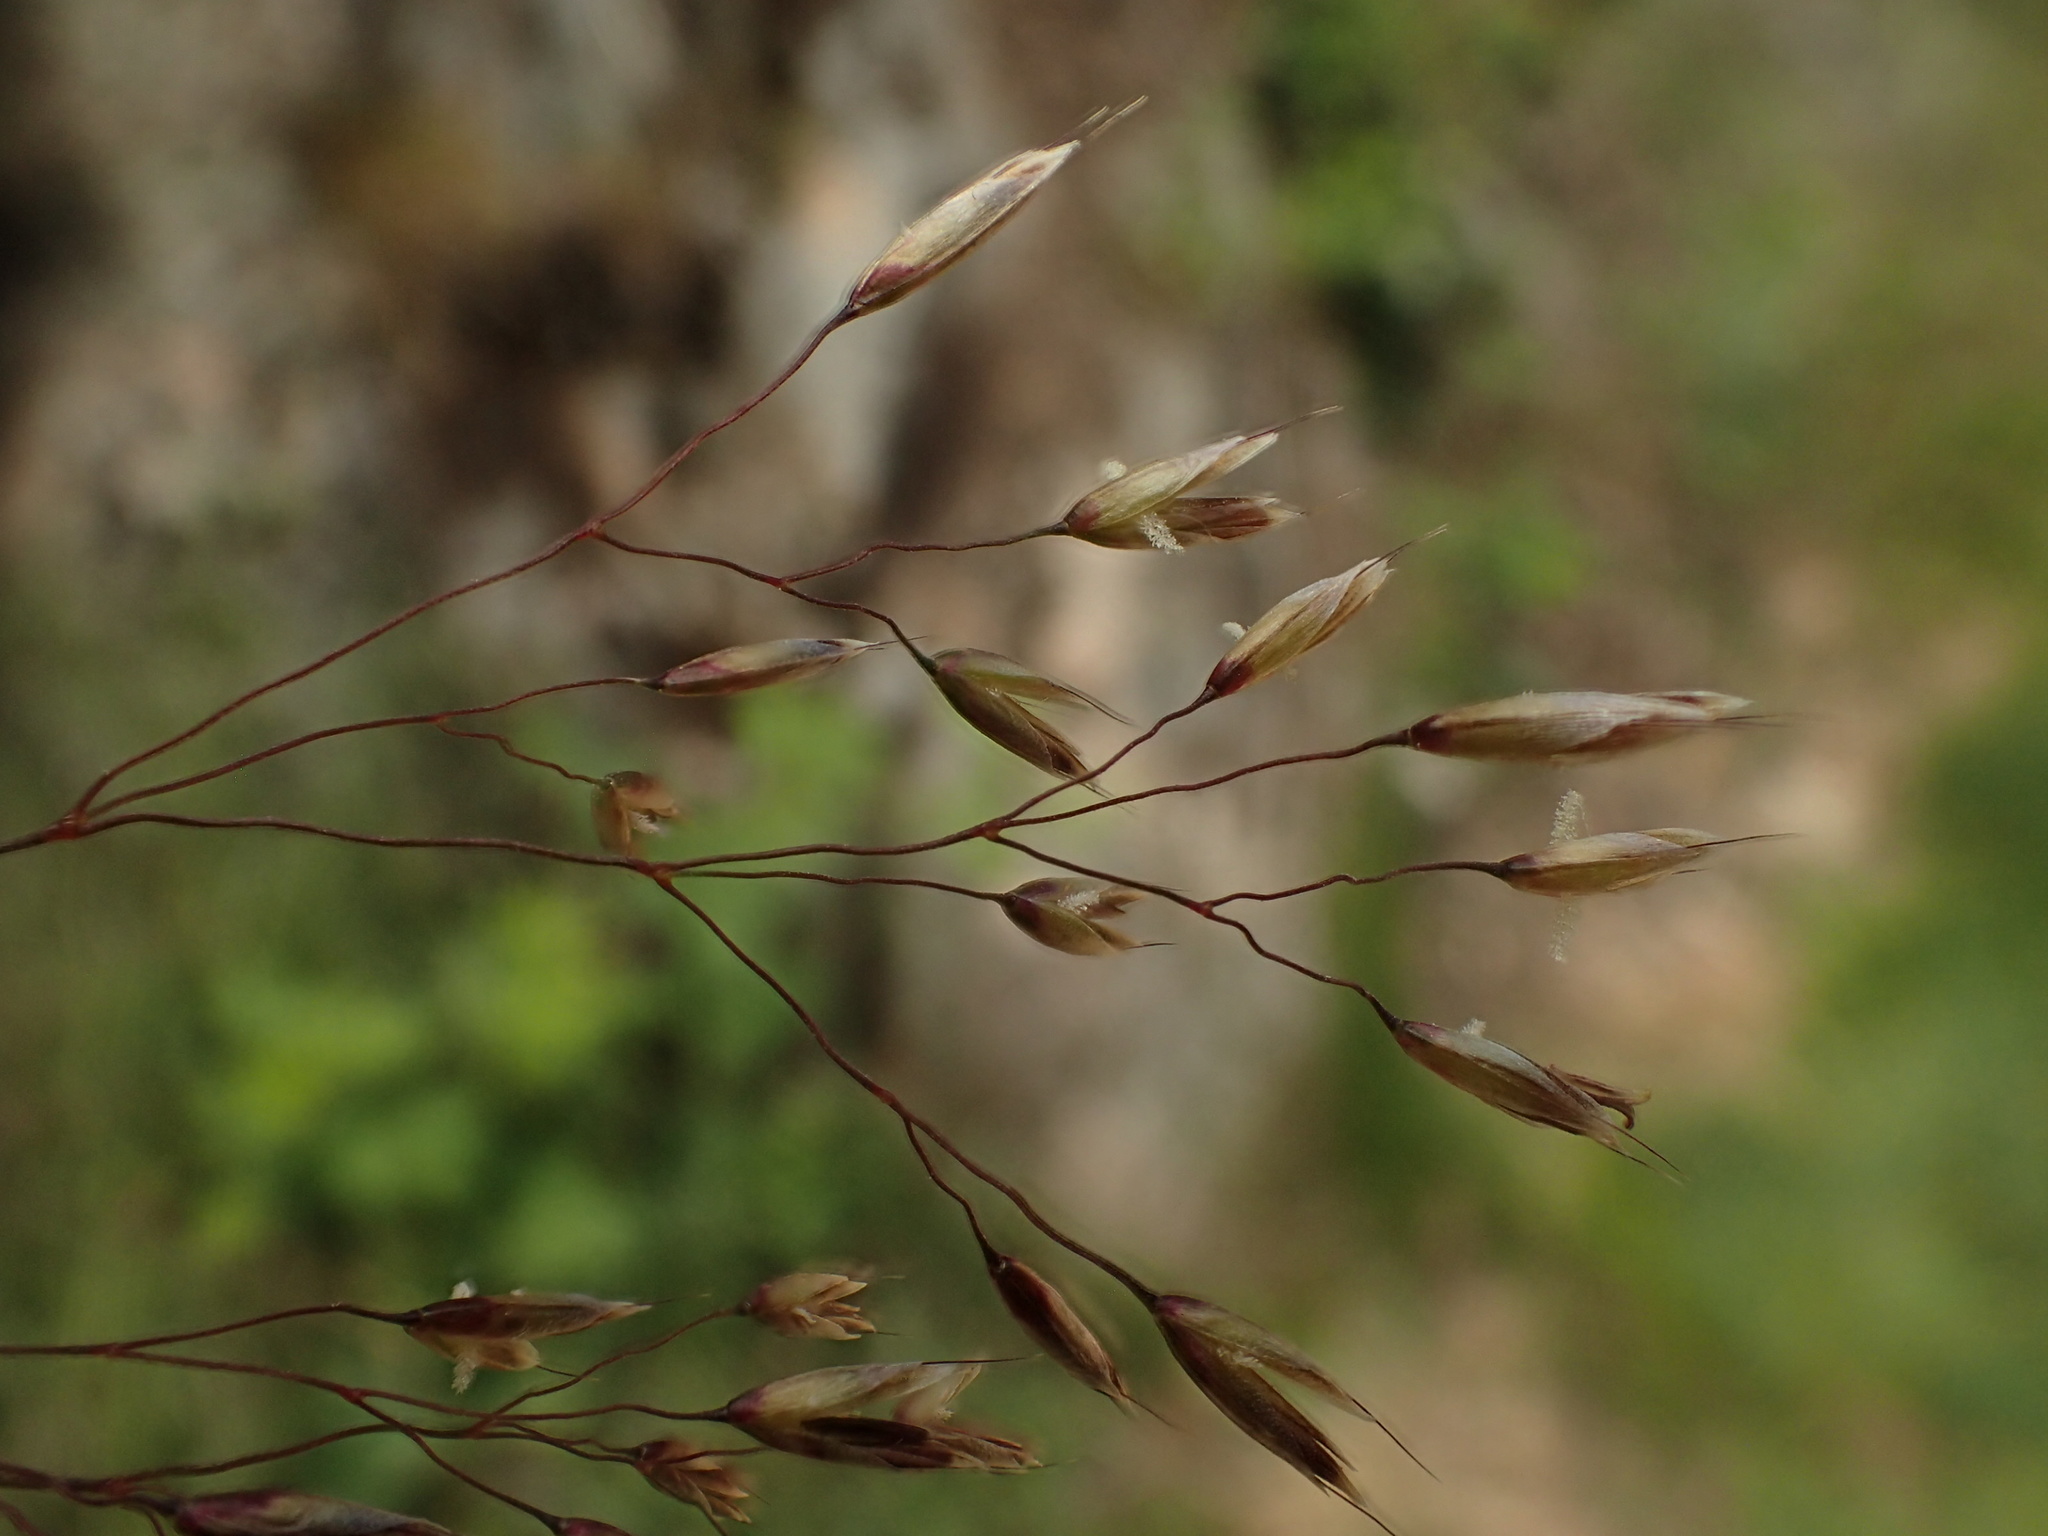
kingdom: Plantae
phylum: Tracheophyta
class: Liliopsida
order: Poales
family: Poaceae
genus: Avenella
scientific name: Avenella flexuosa
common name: Wavy hairgrass
